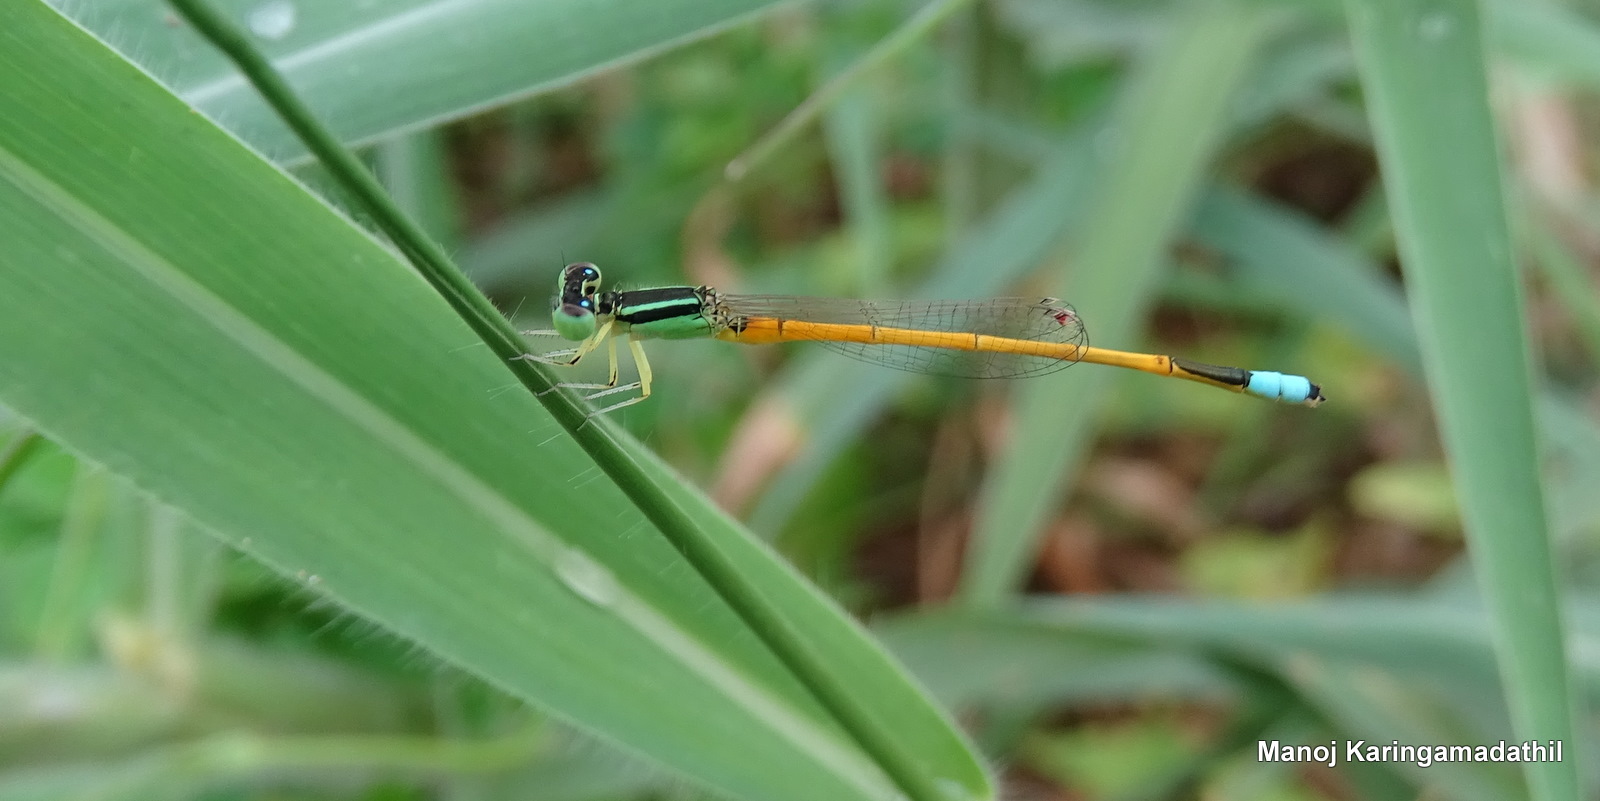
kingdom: Animalia
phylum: Arthropoda
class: Insecta
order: Odonata
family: Coenagrionidae
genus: Ischnura
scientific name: Ischnura rubilio
